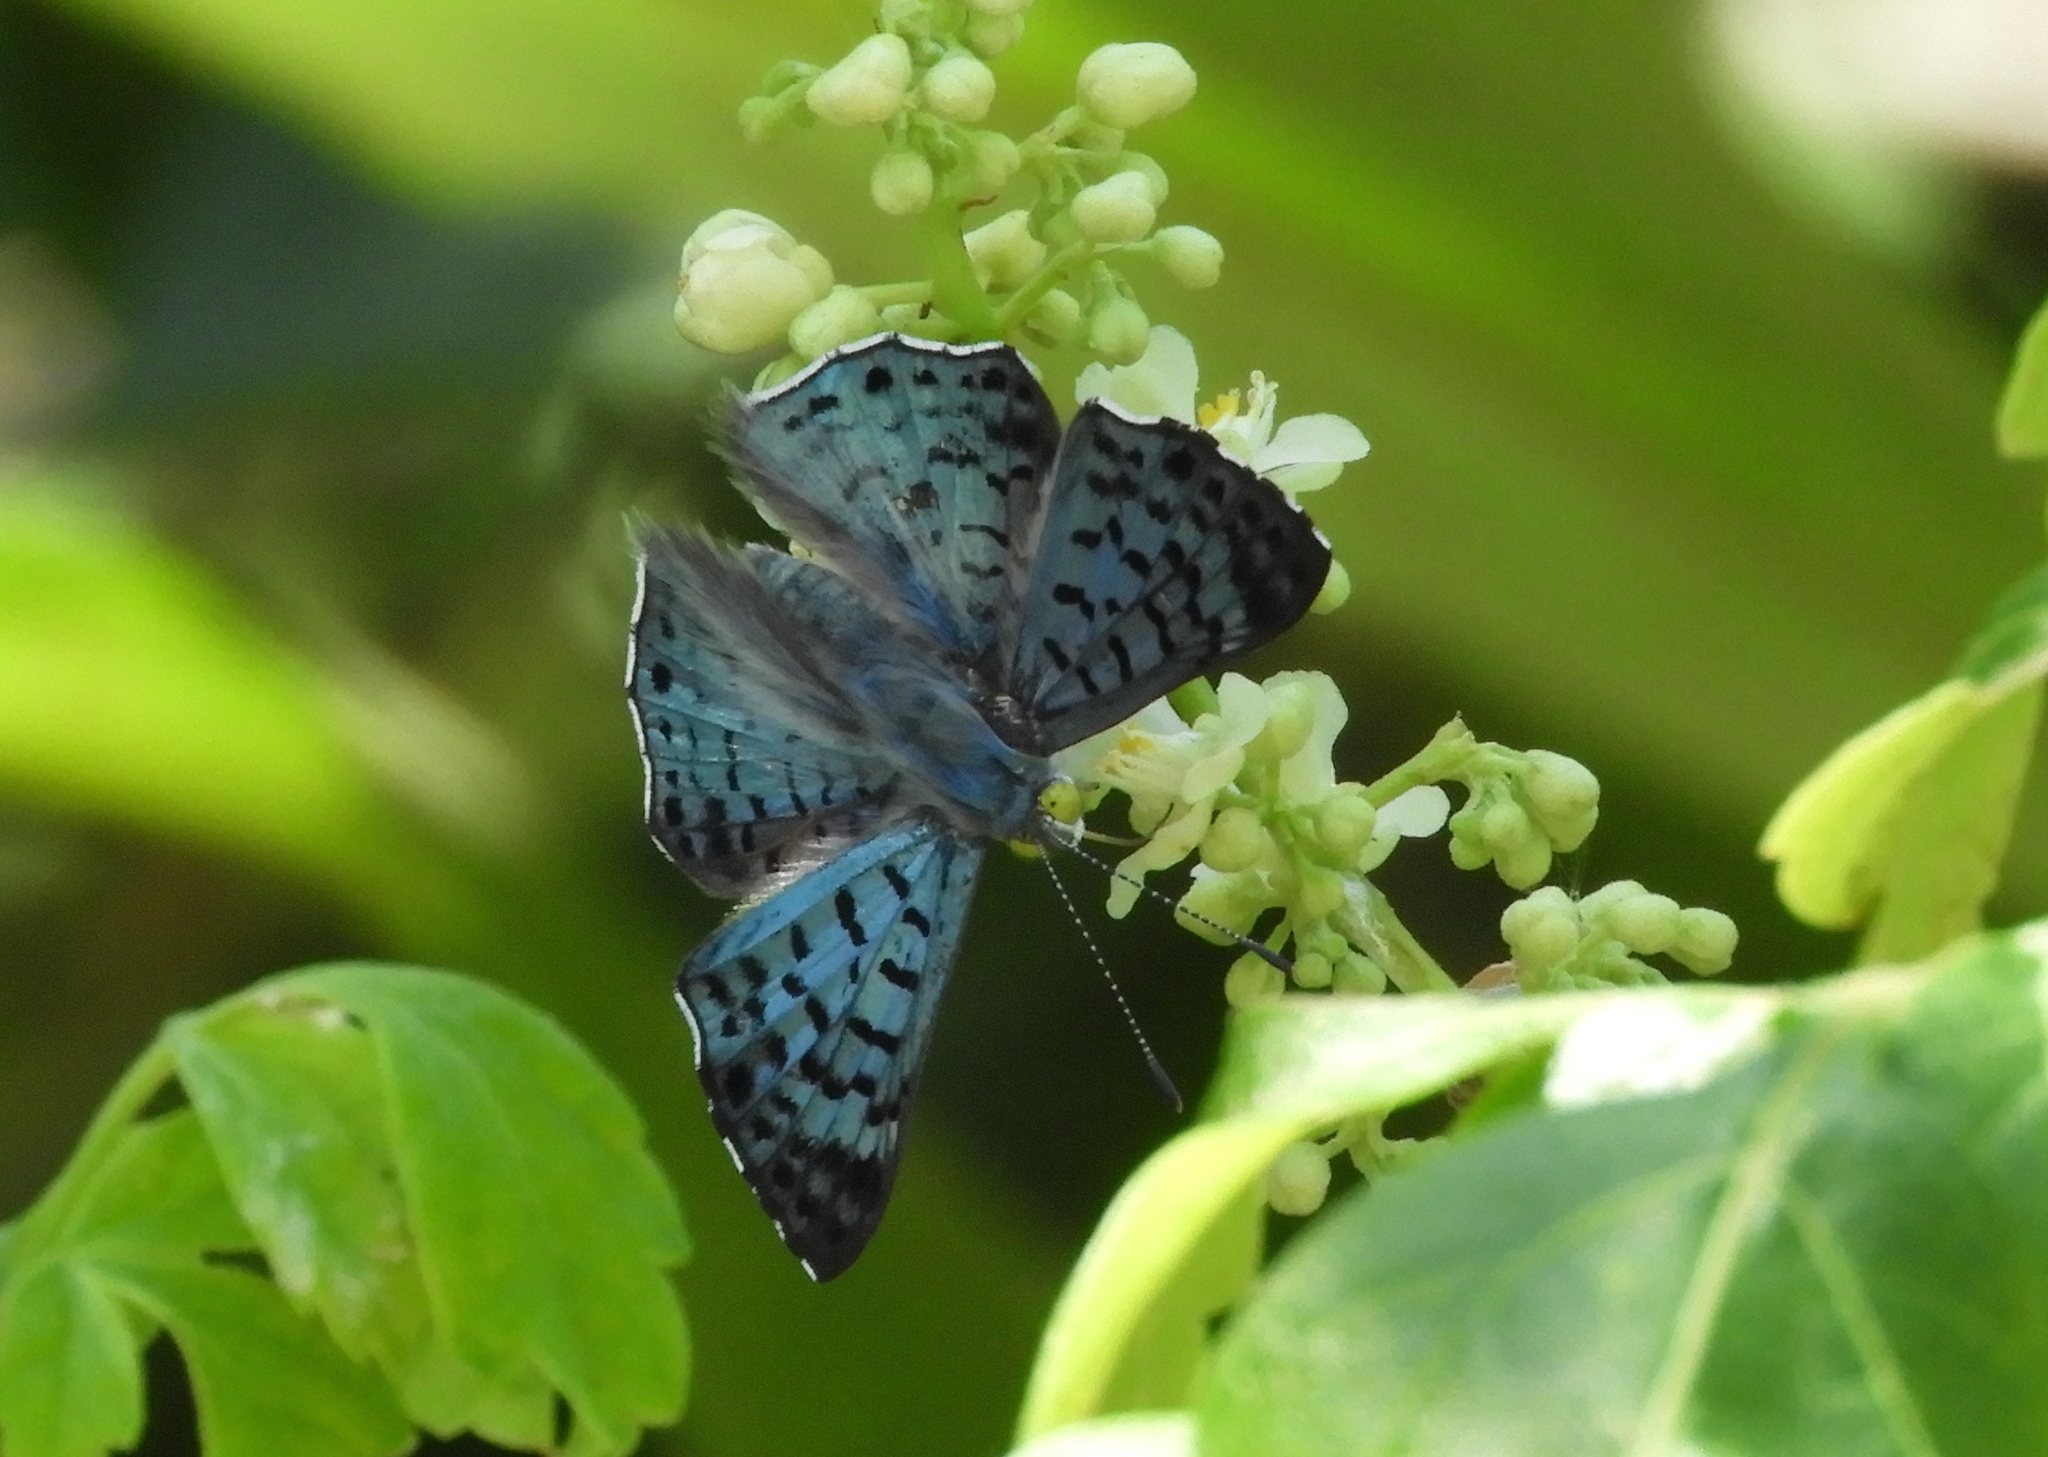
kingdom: Animalia
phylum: Arthropoda
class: Insecta
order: Lepidoptera
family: Riodinidae
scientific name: Riodinidae
